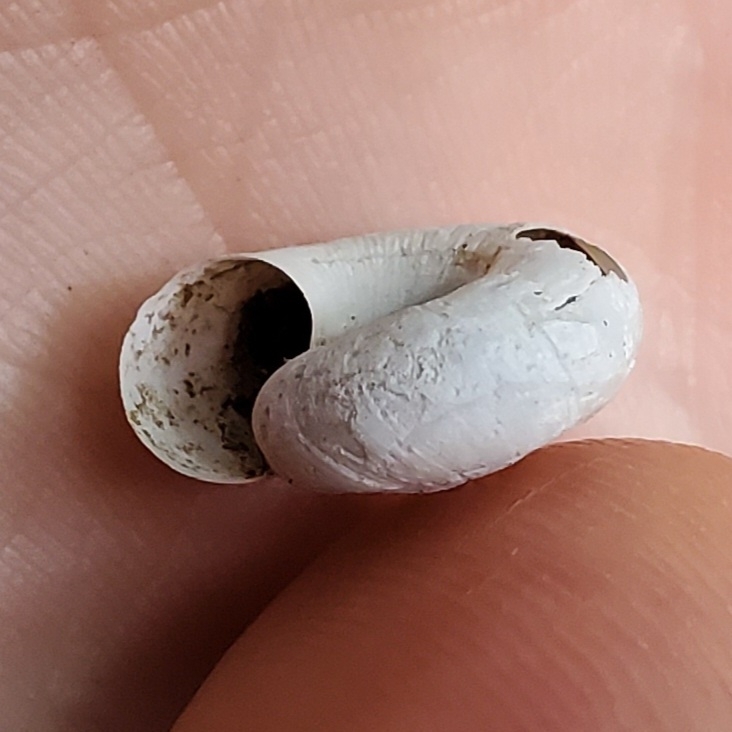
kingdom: Animalia
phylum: Mollusca
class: Gastropoda
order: Stylommatophora
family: Haplotrematidae
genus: Haplotrema
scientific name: Haplotrema concavum
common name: Gray-foot lancetooth
